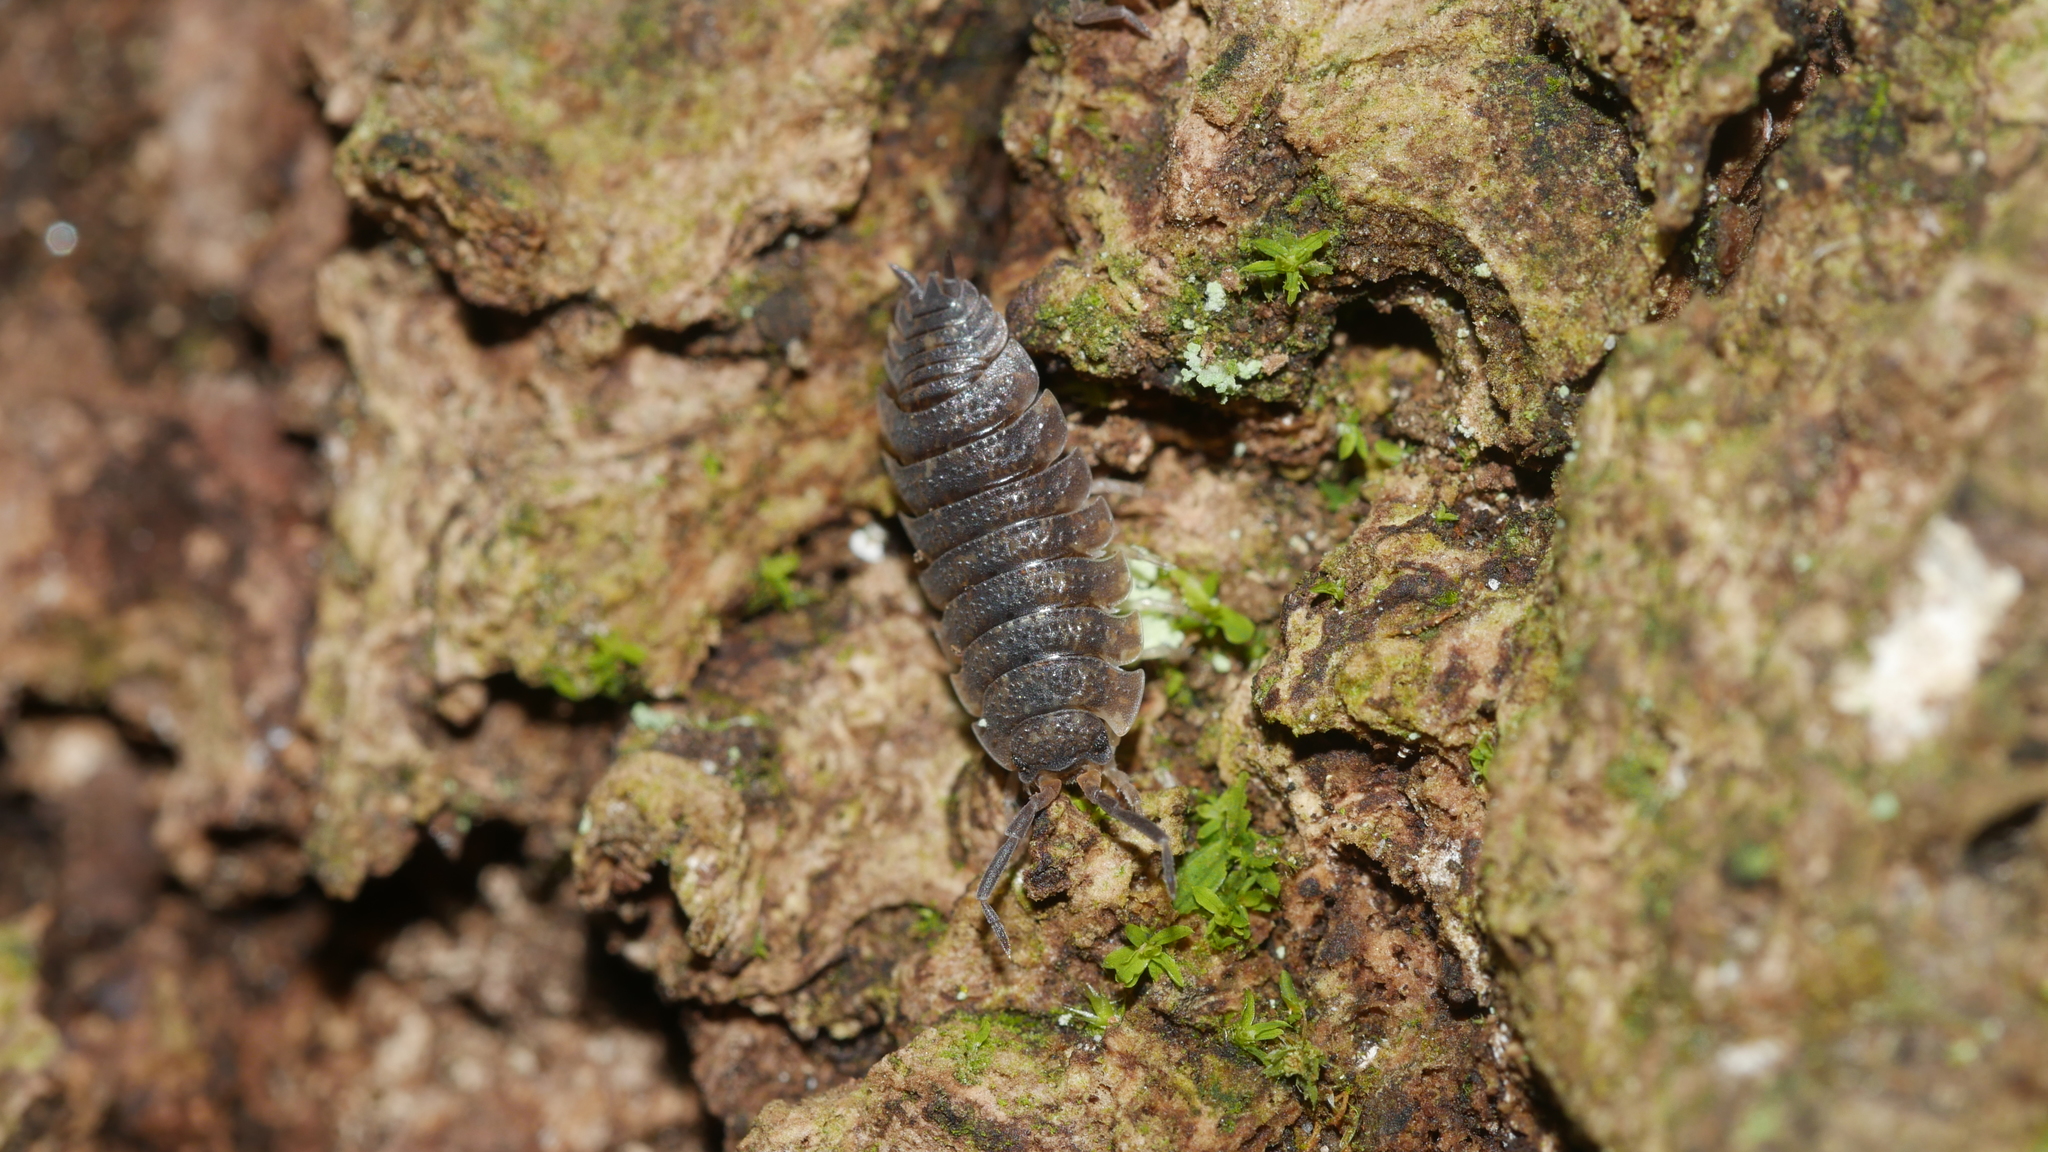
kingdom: Animalia
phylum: Arthropoda
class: Malacostraca
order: Isopoda
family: Porcellionidae
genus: Porcellio
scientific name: Porcellio scaber
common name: Common rough woodlouse
